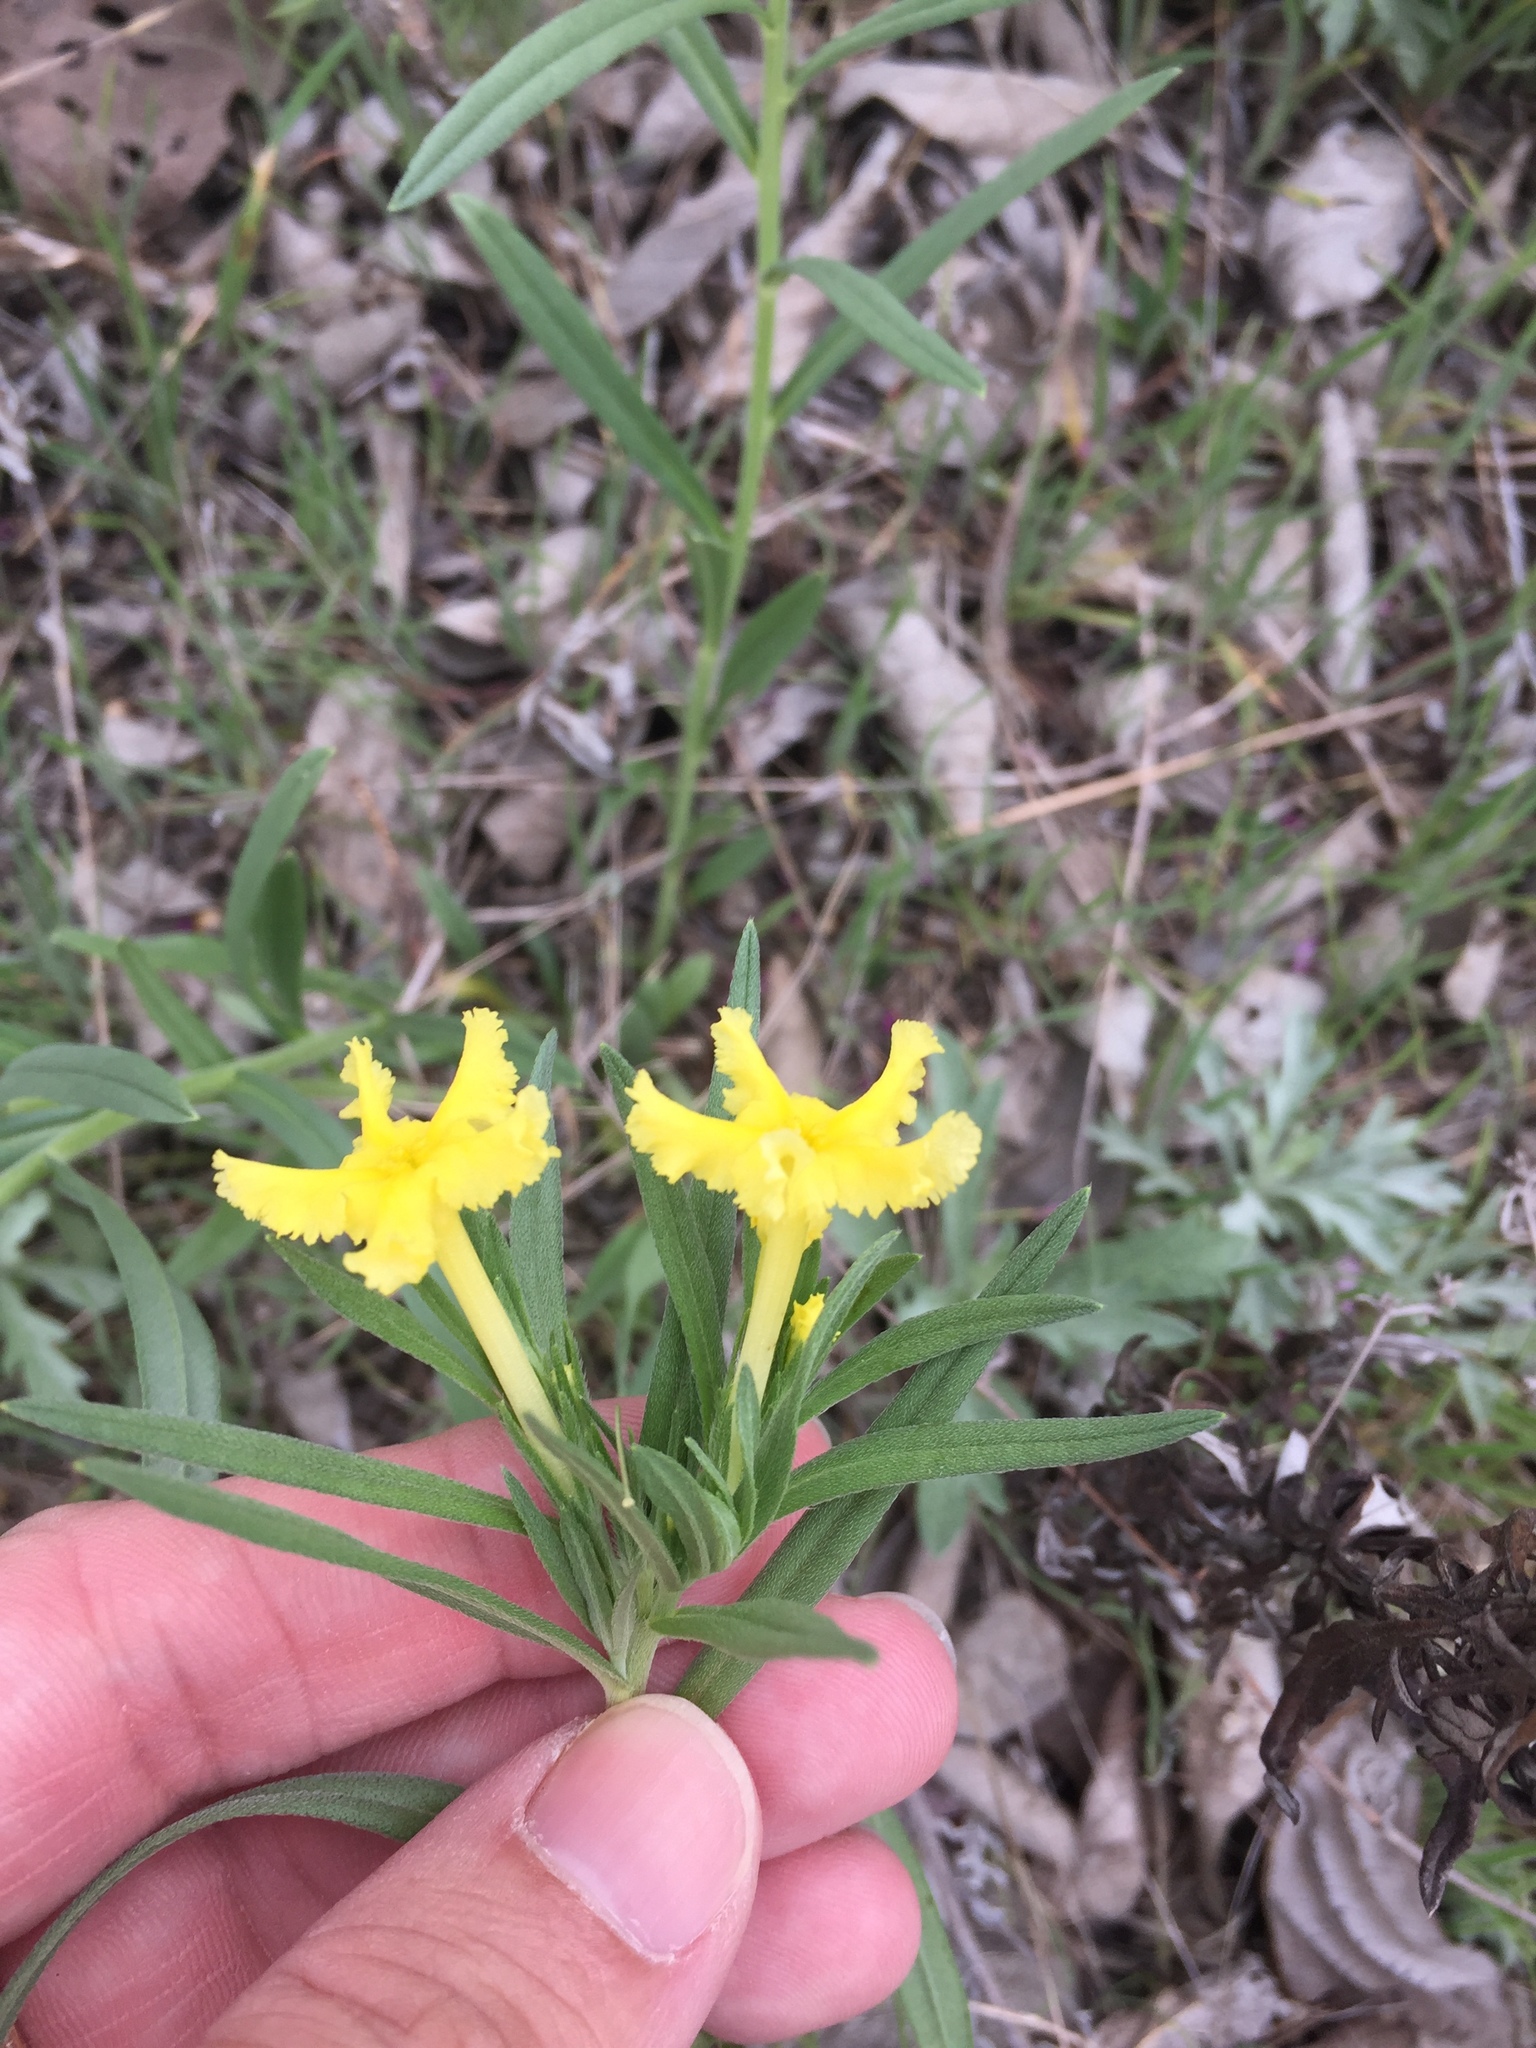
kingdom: Plantae
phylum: Tracheophyta
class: Magnoliopsida
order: Boraginales
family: Boraginaceae
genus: Lithospermum
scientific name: Lithospermum incisum
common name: Fringed gromwell
